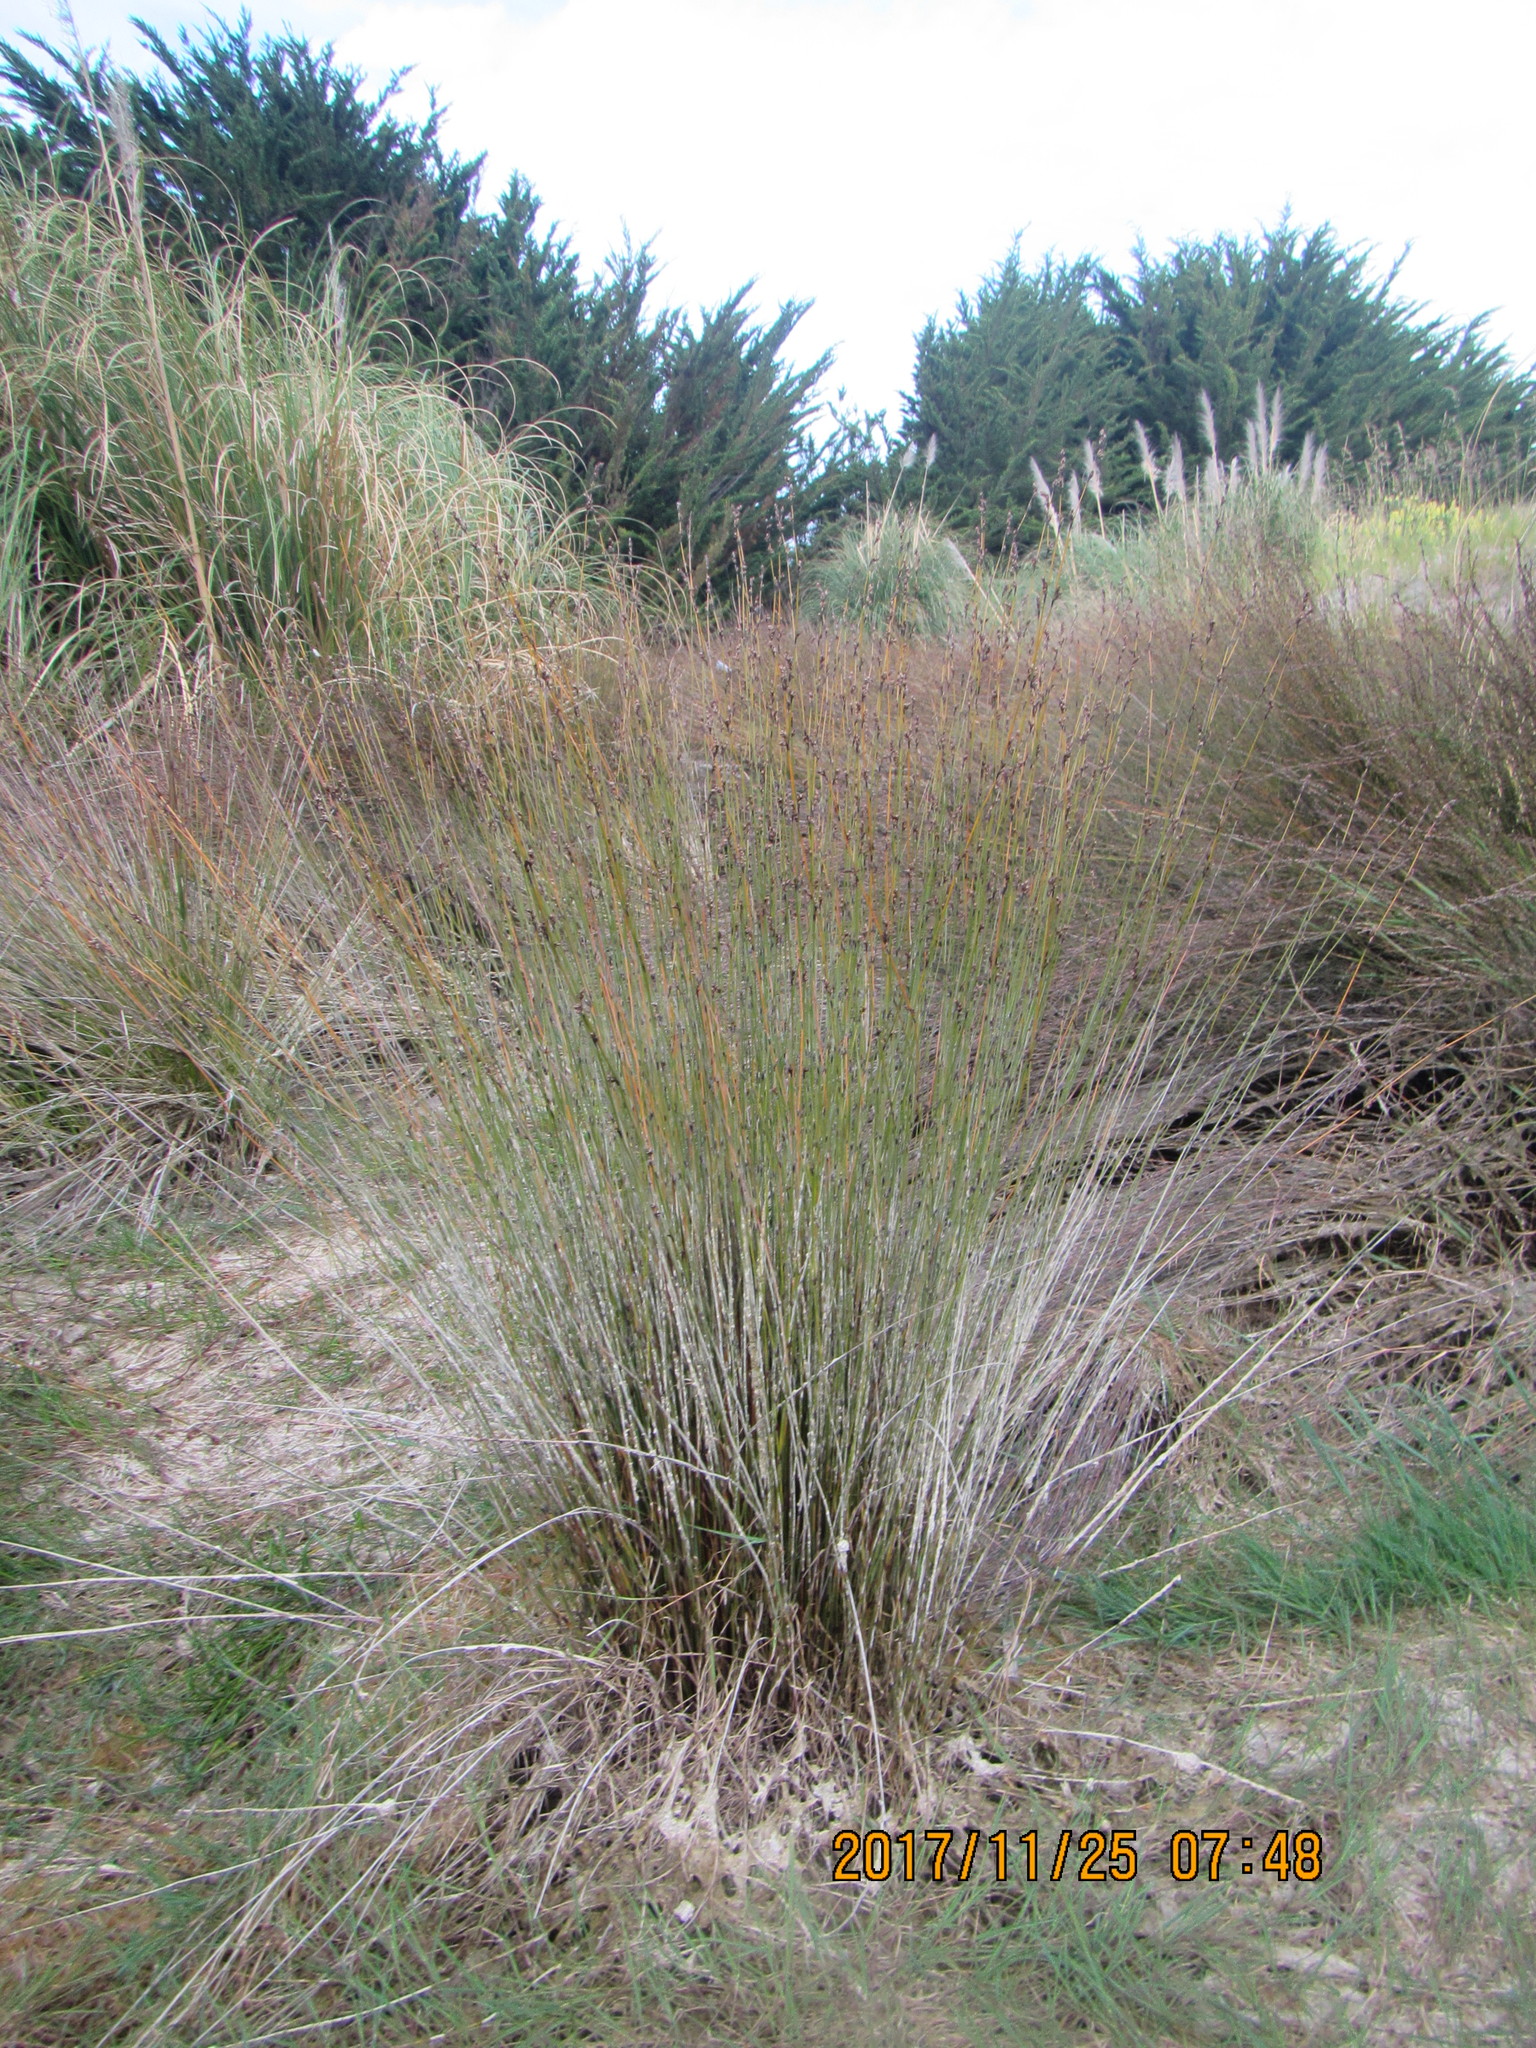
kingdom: Plantae
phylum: Tracheophyta
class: Liliopsida
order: Poales
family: Restionaceae
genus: Apodasmia
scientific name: Apodasmia similis
